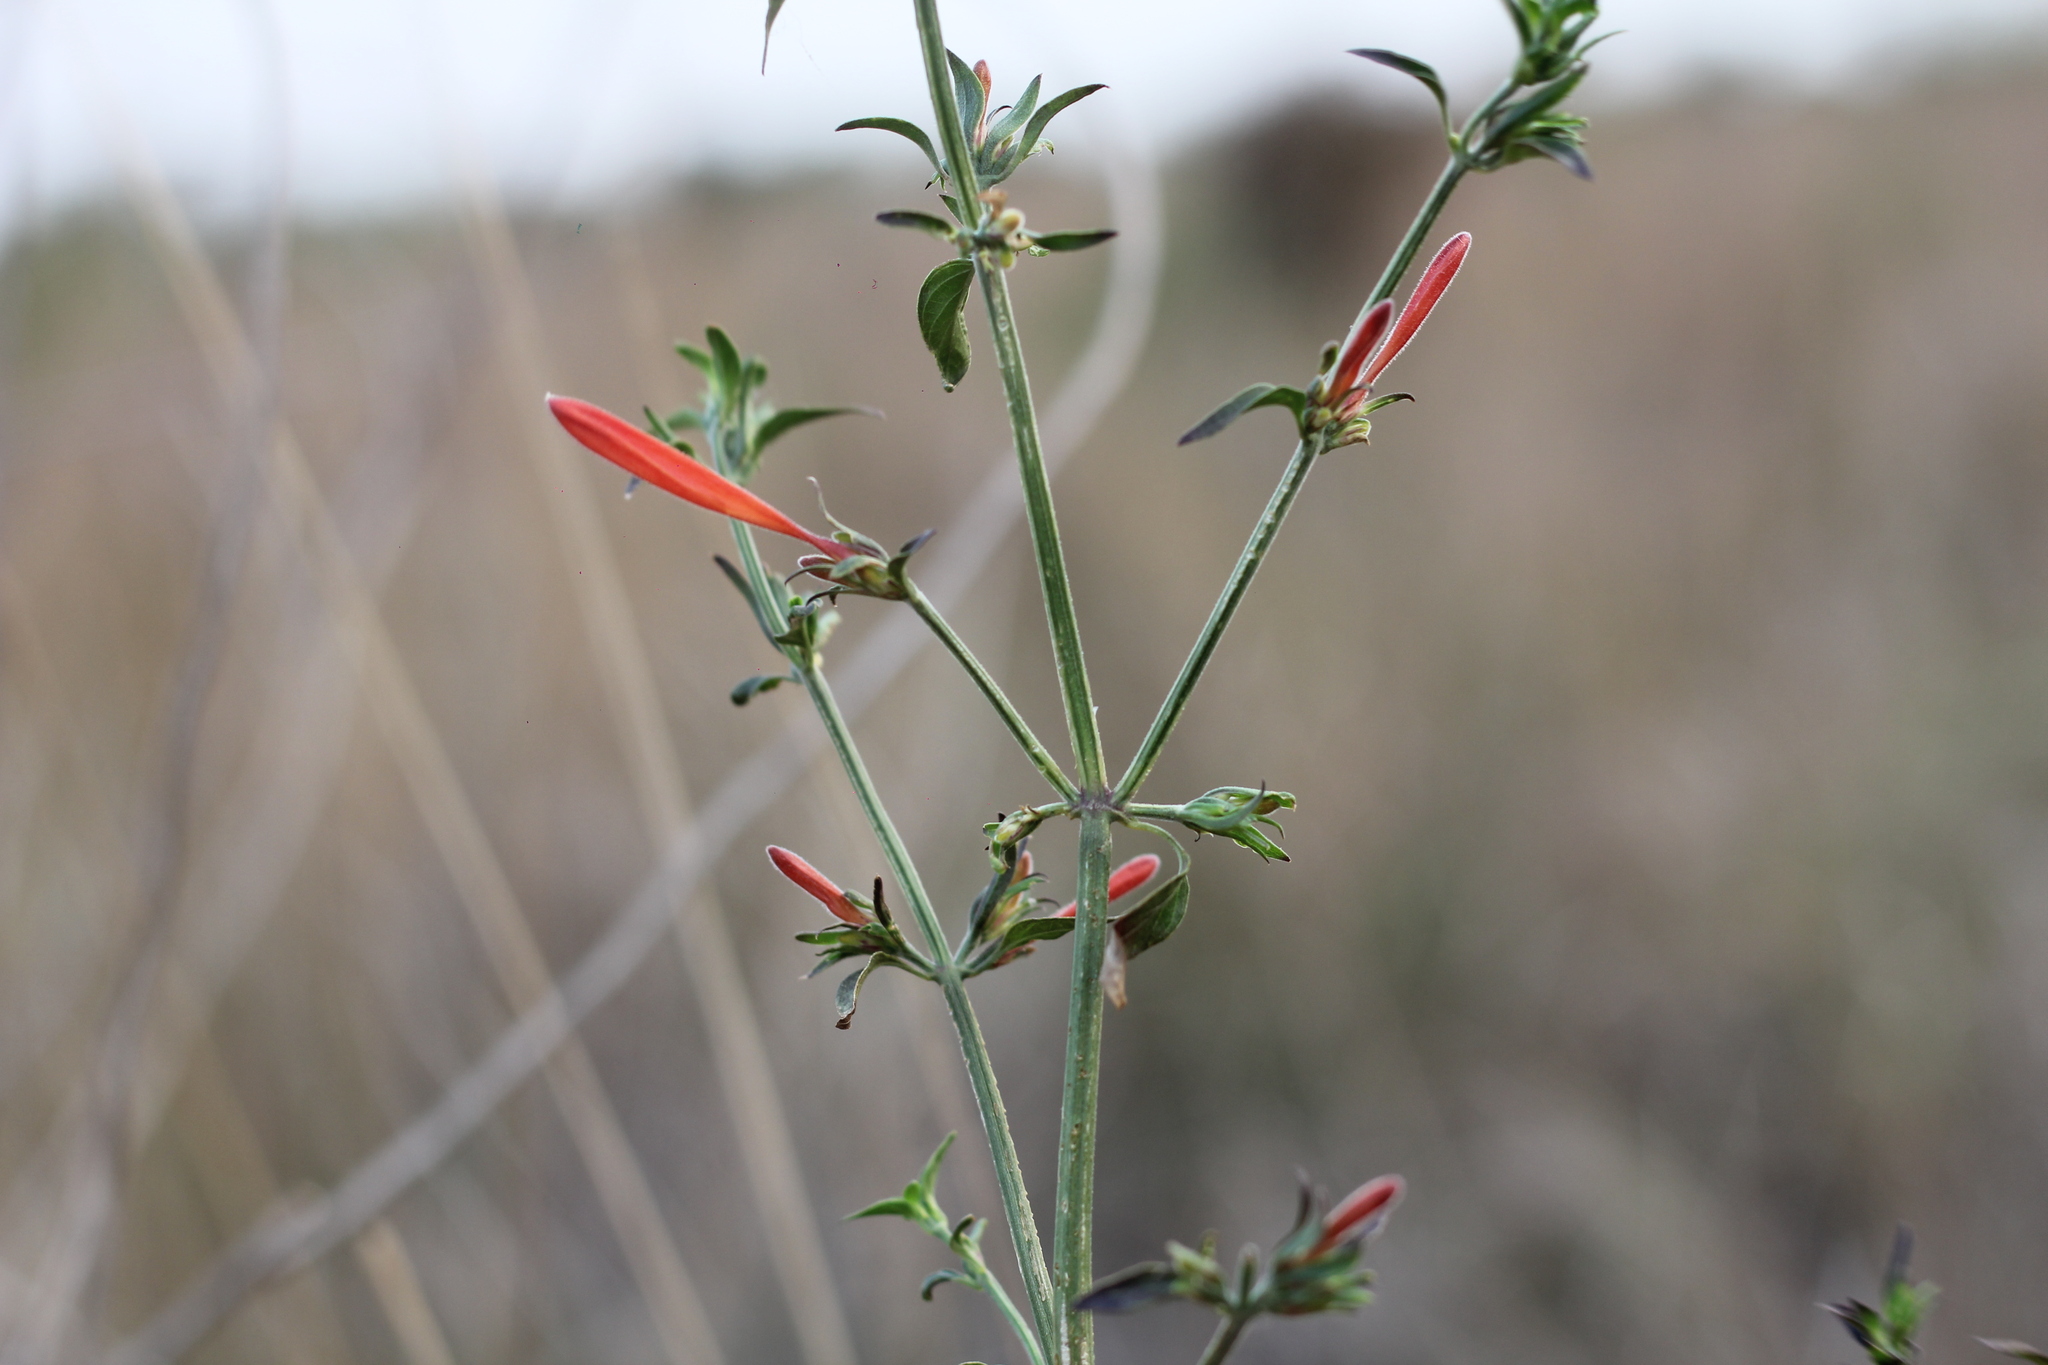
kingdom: Plantae
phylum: Tracheophyta
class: Magnoliopsida
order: Lamiales
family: Acanthaceae
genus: Dicliptera
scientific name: Dicliptera squarrosa
